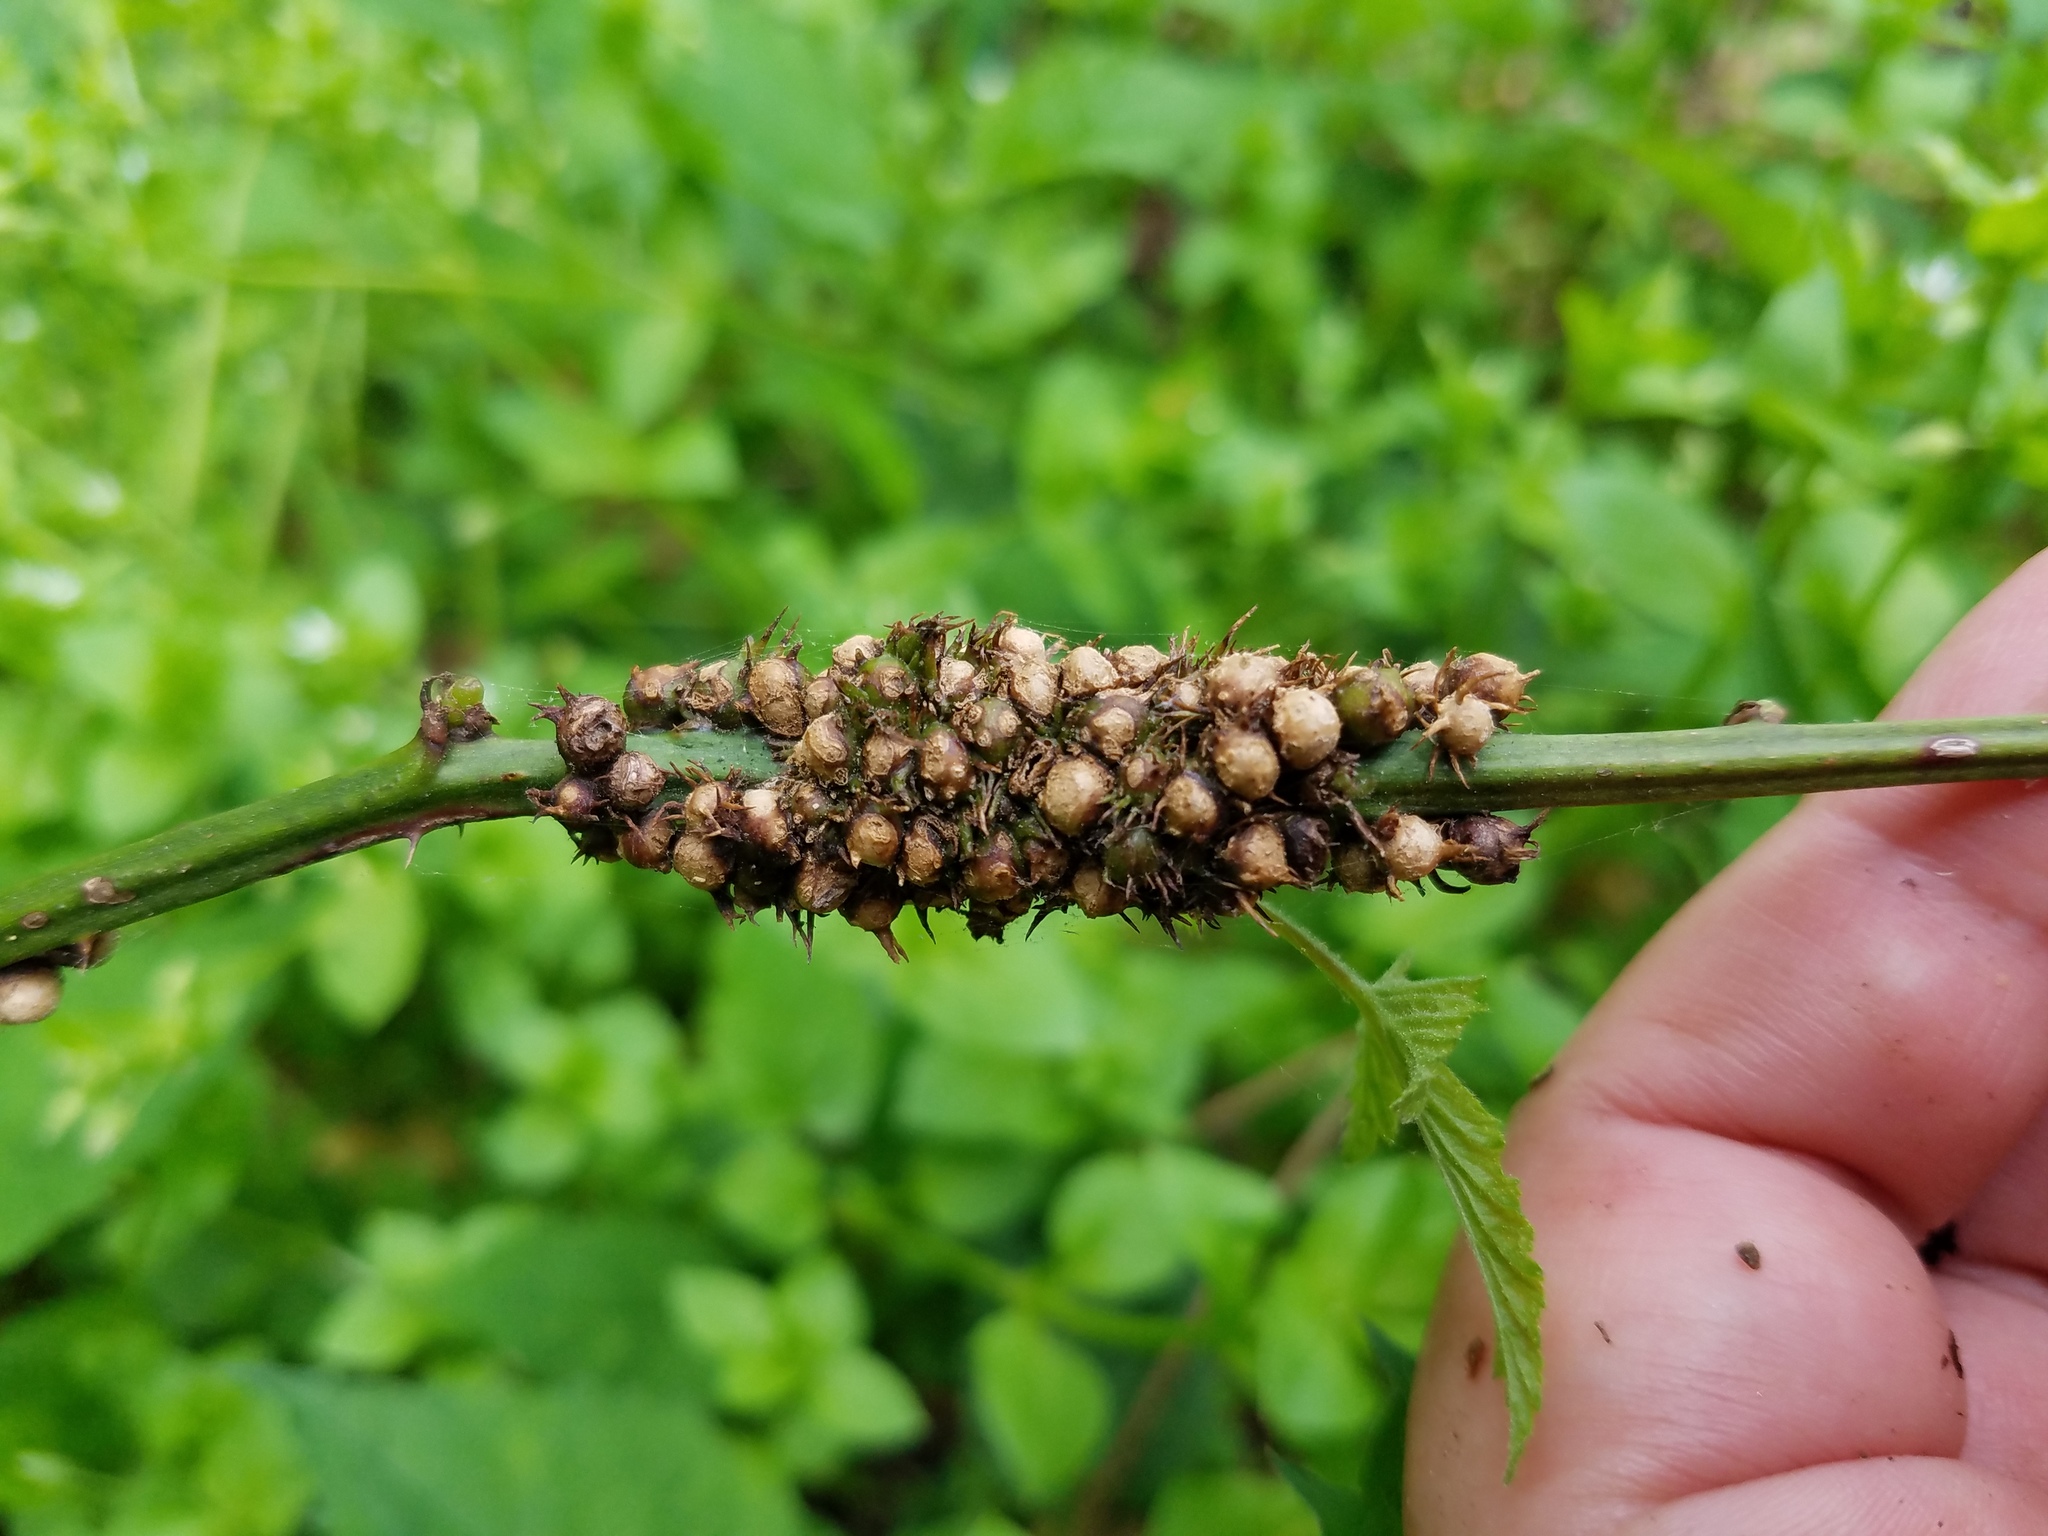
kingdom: Animalia
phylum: Arthropoda
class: Insecta
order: Hymenoptera
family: Cynipidae
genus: Diastrophus
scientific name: Diastrophus
